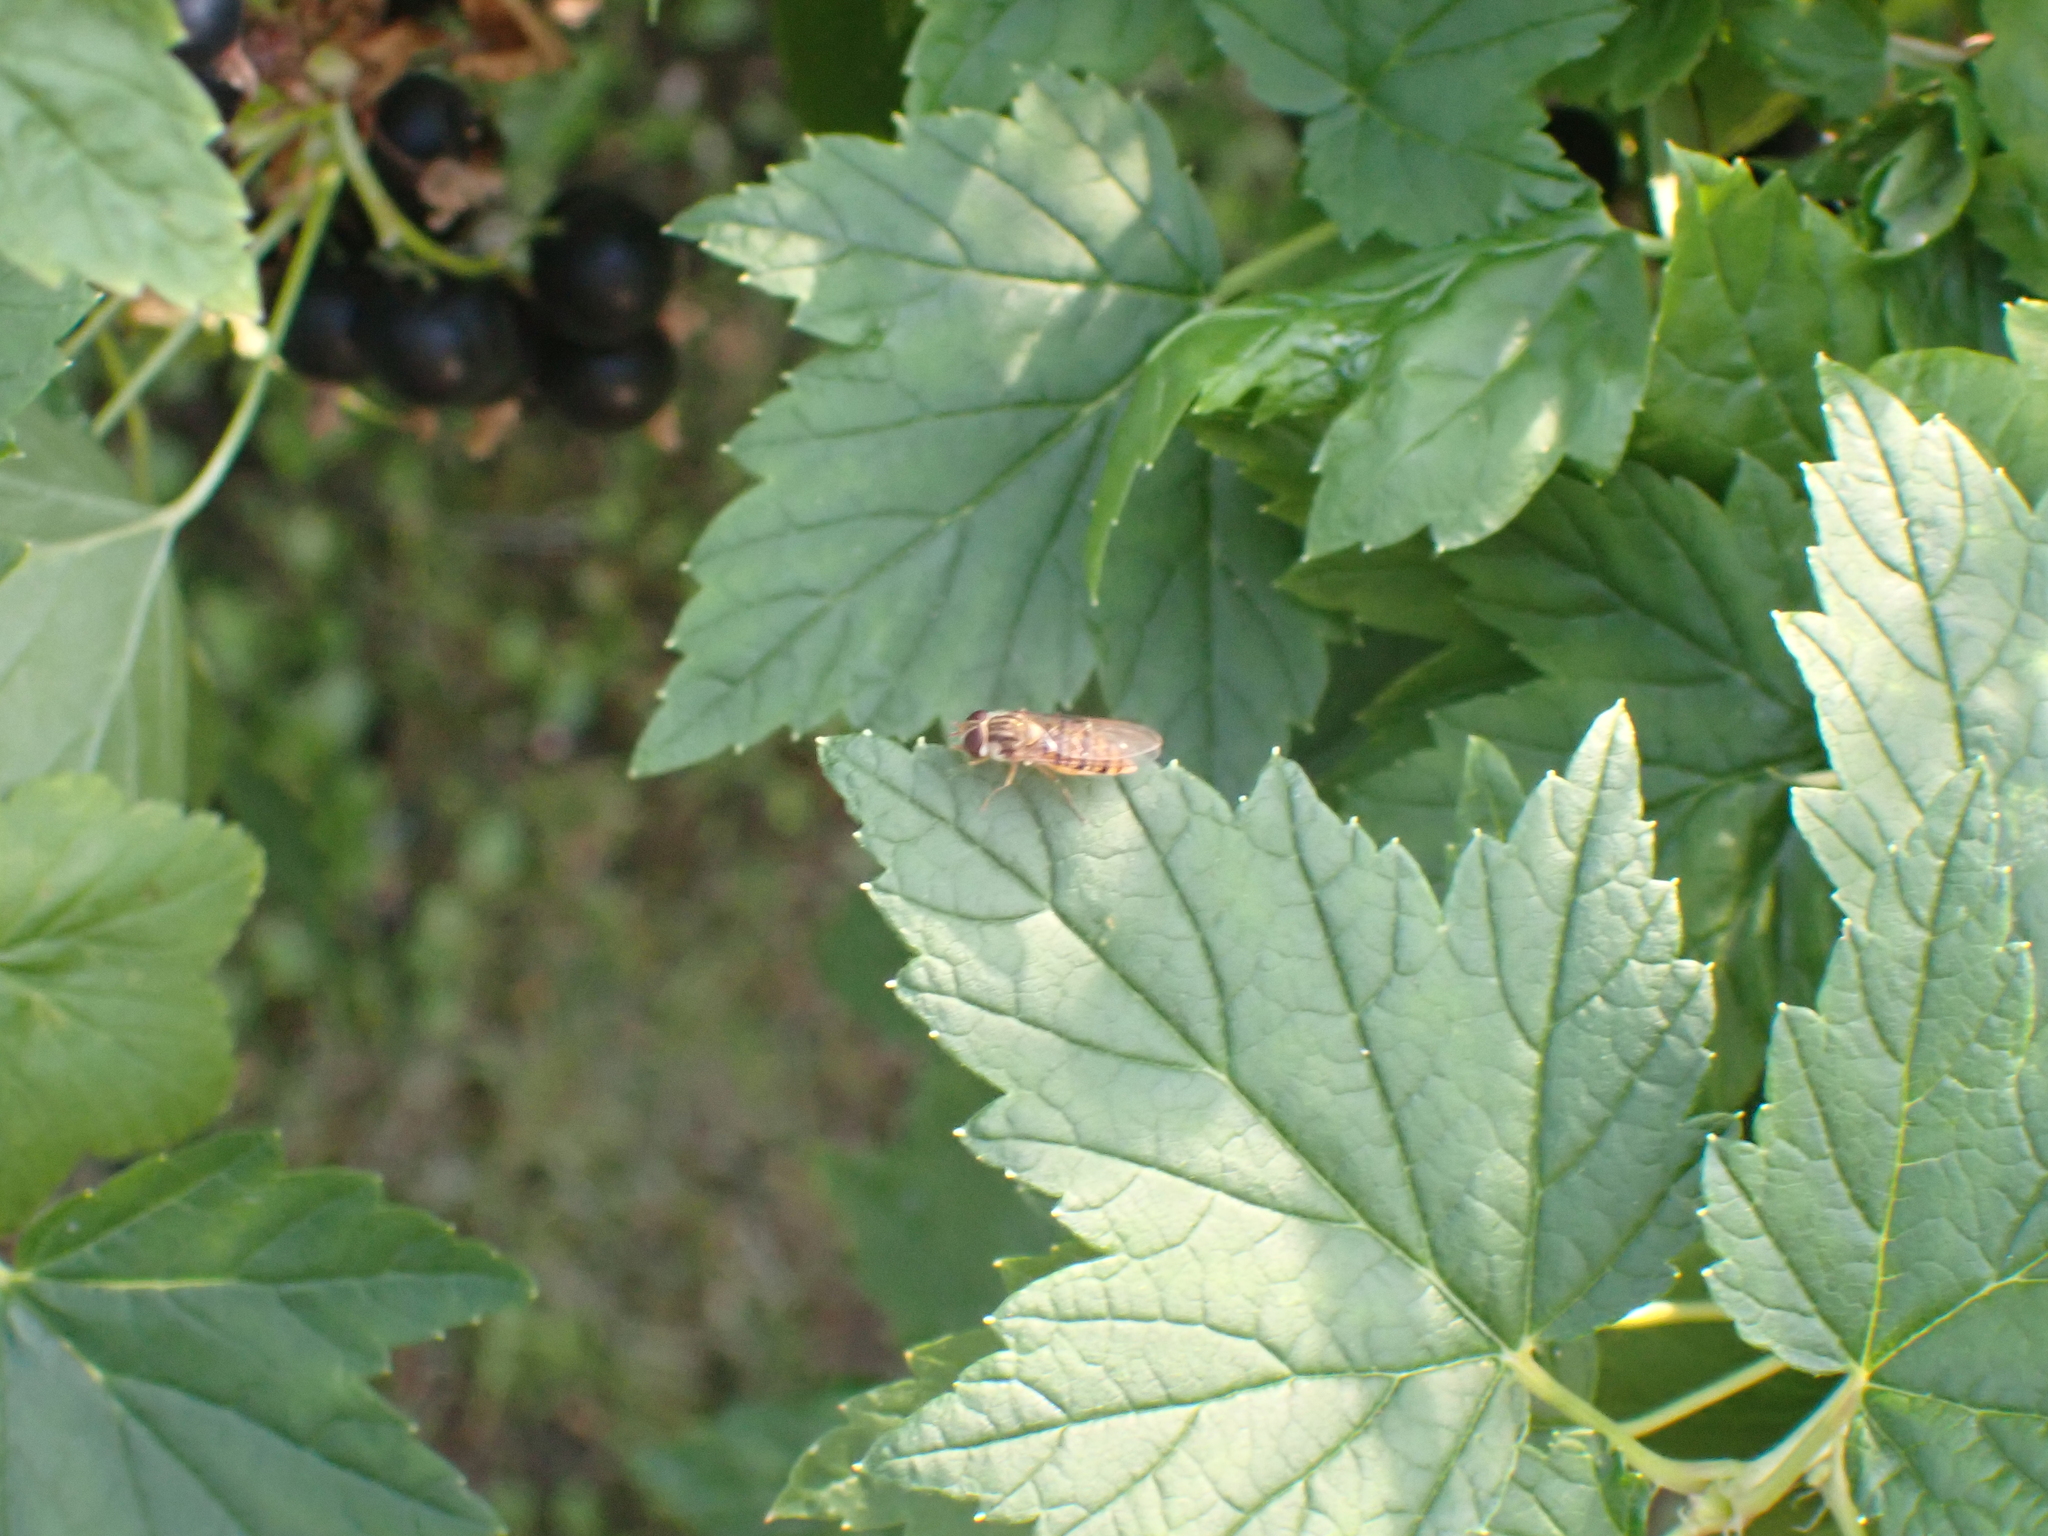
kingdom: Animalia
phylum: Arthropoda
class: Insecta
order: Diptera
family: Syrphidae
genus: Episyrphus
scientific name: Episyrphus balteatus
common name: Marmalade hoverfly
